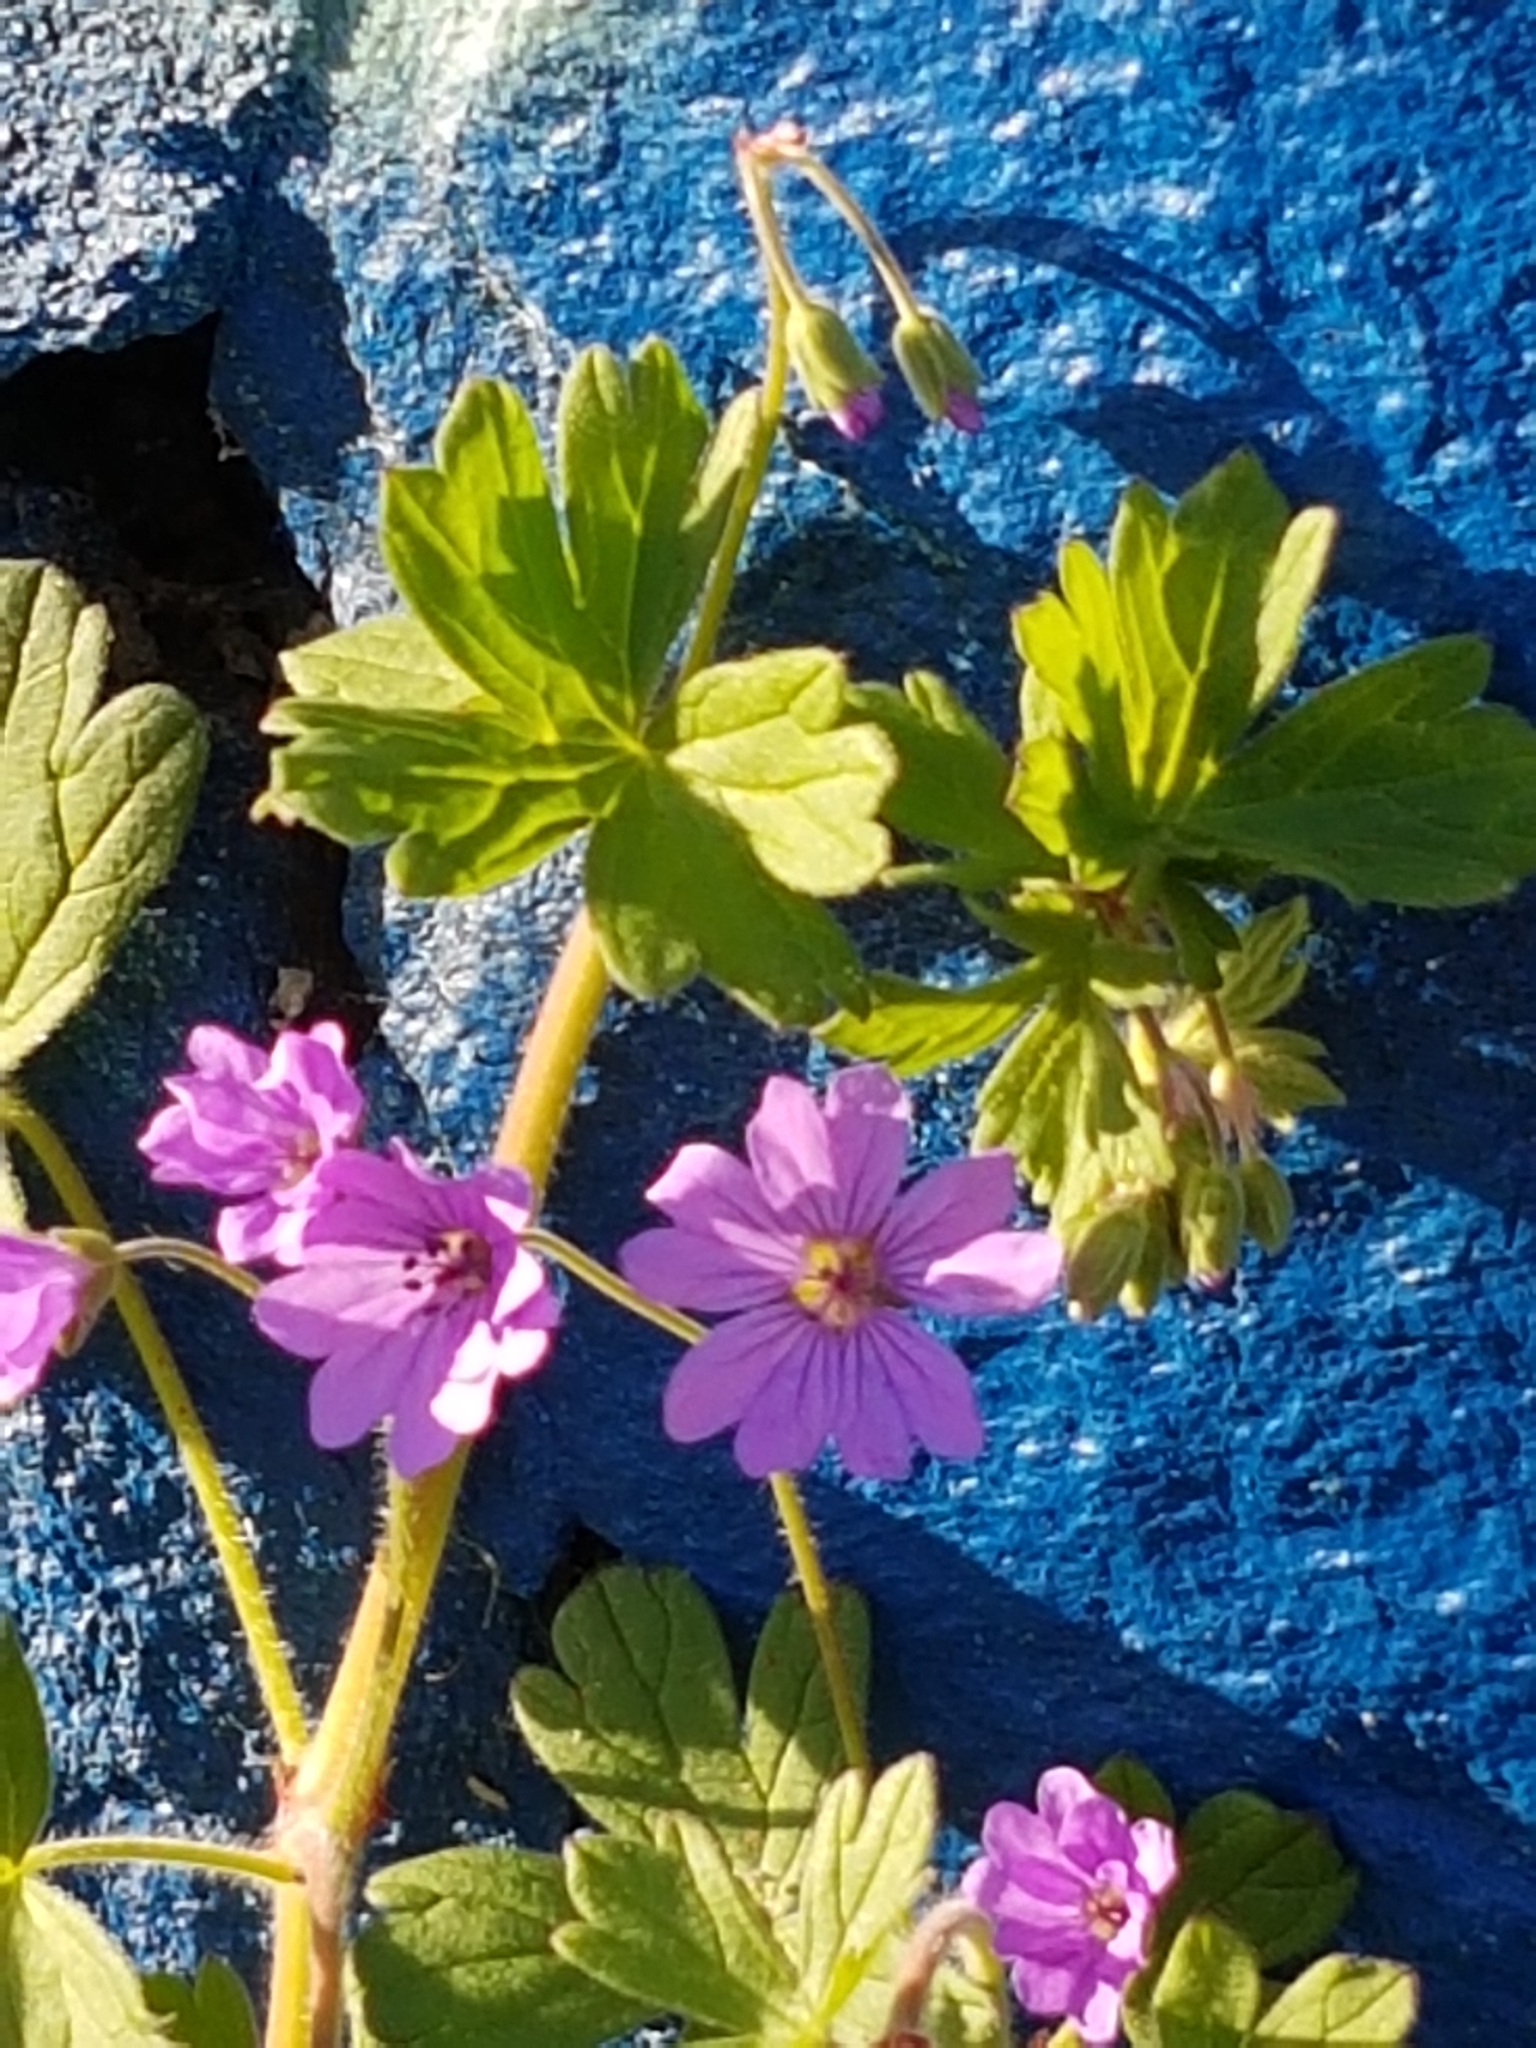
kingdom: Plantae
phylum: Tracheophyta
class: Magnoliopsida
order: Geraniales
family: Geraniaceae
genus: Geranium
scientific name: Geranium pyrenaicum
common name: Hedgerow crane's-bill
